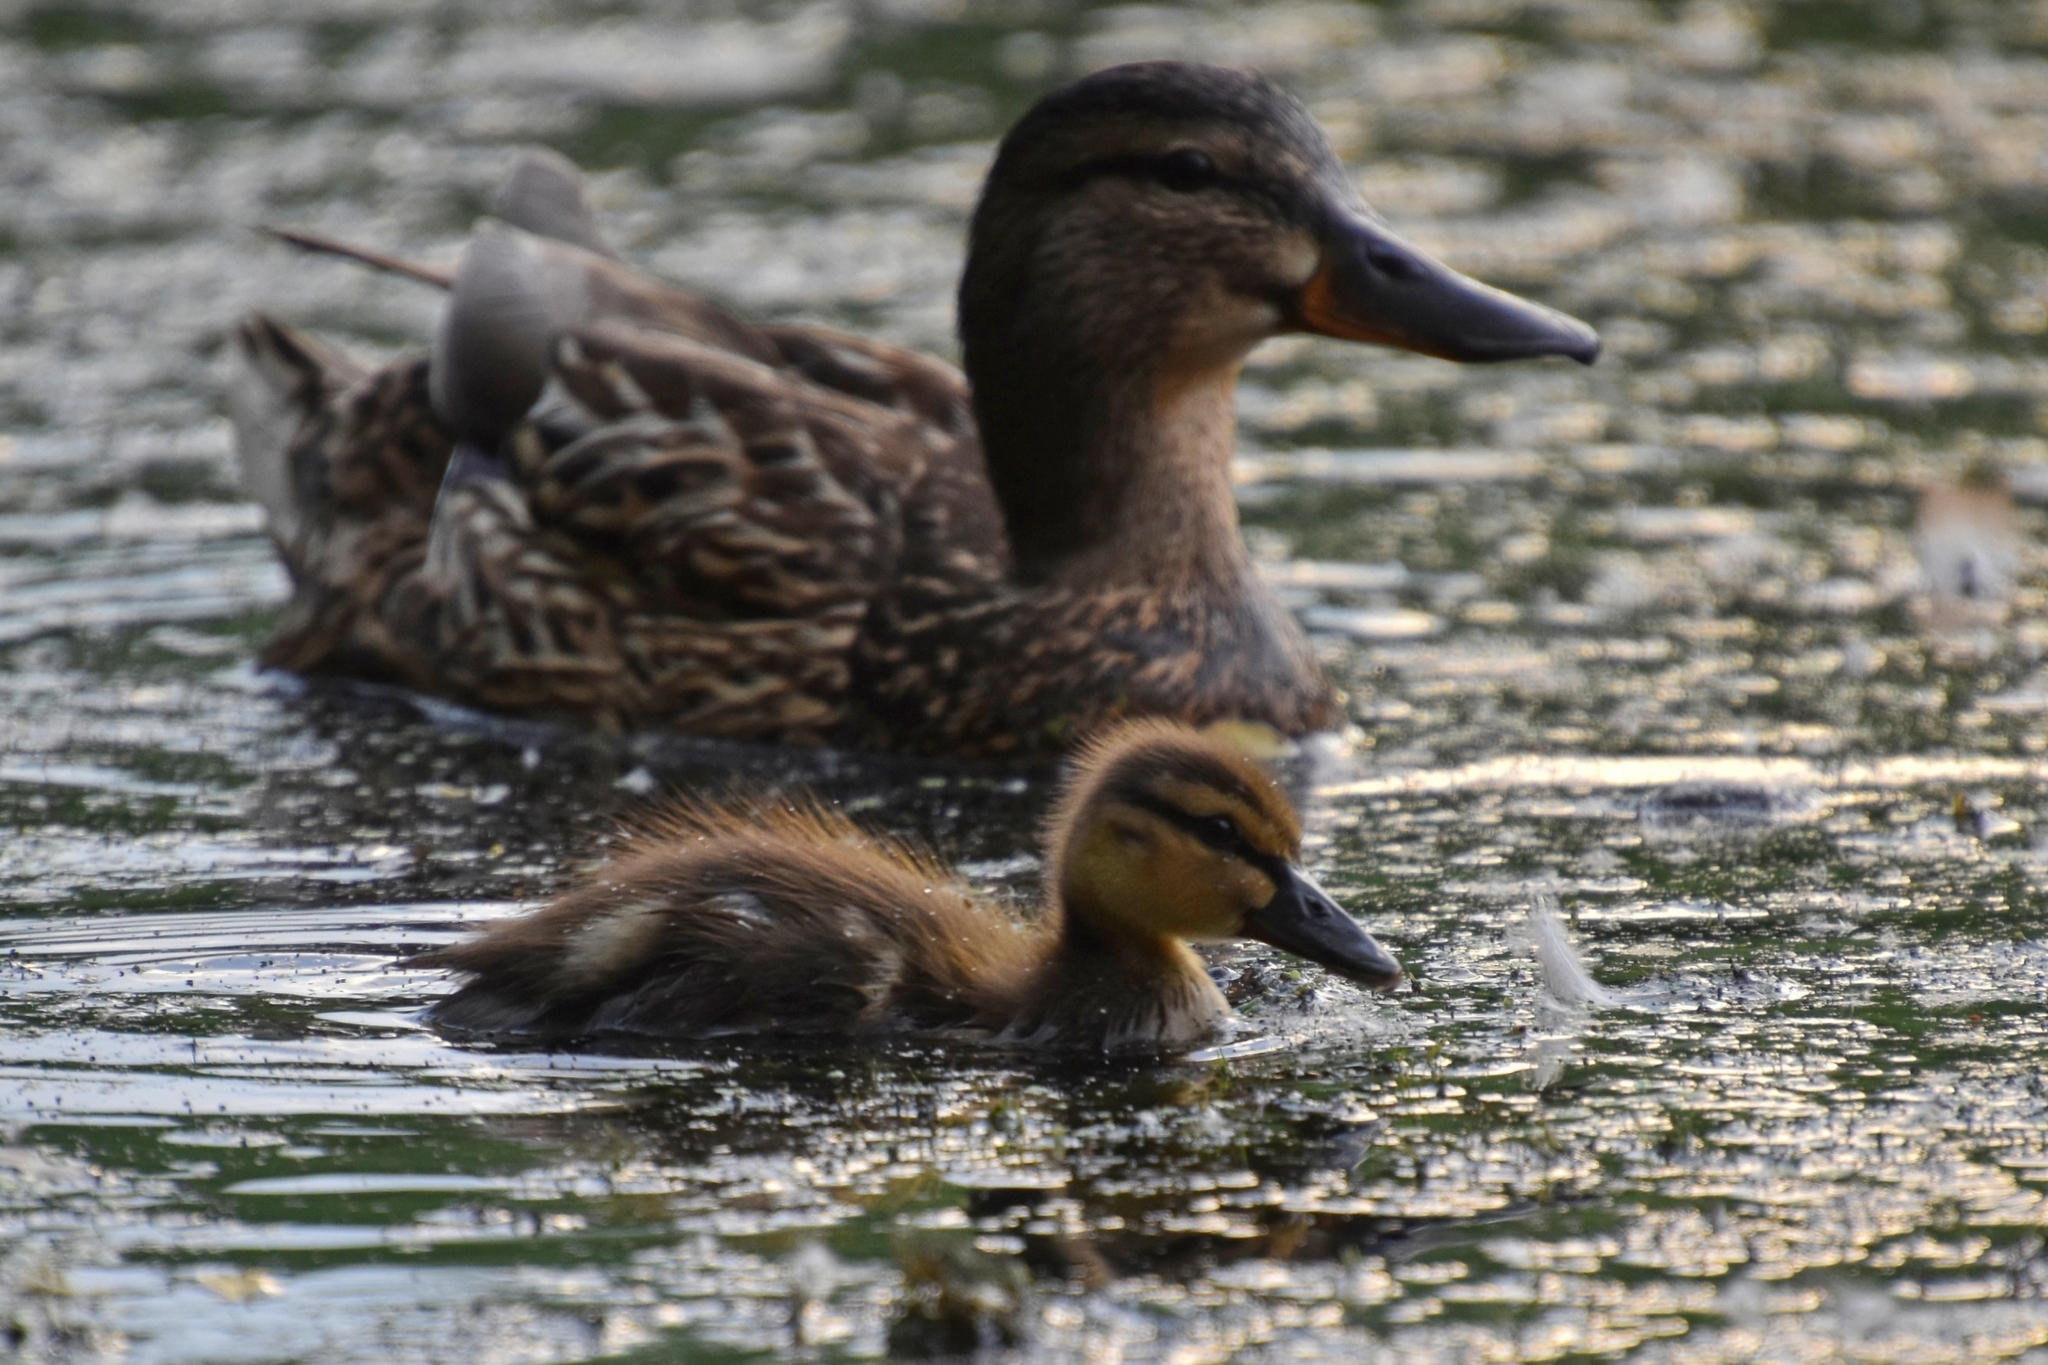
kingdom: Animalia
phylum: Chordata
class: Aves
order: Anseriformes
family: Anatidae
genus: Anas
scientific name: Anas platyrhynchos
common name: Mallard
